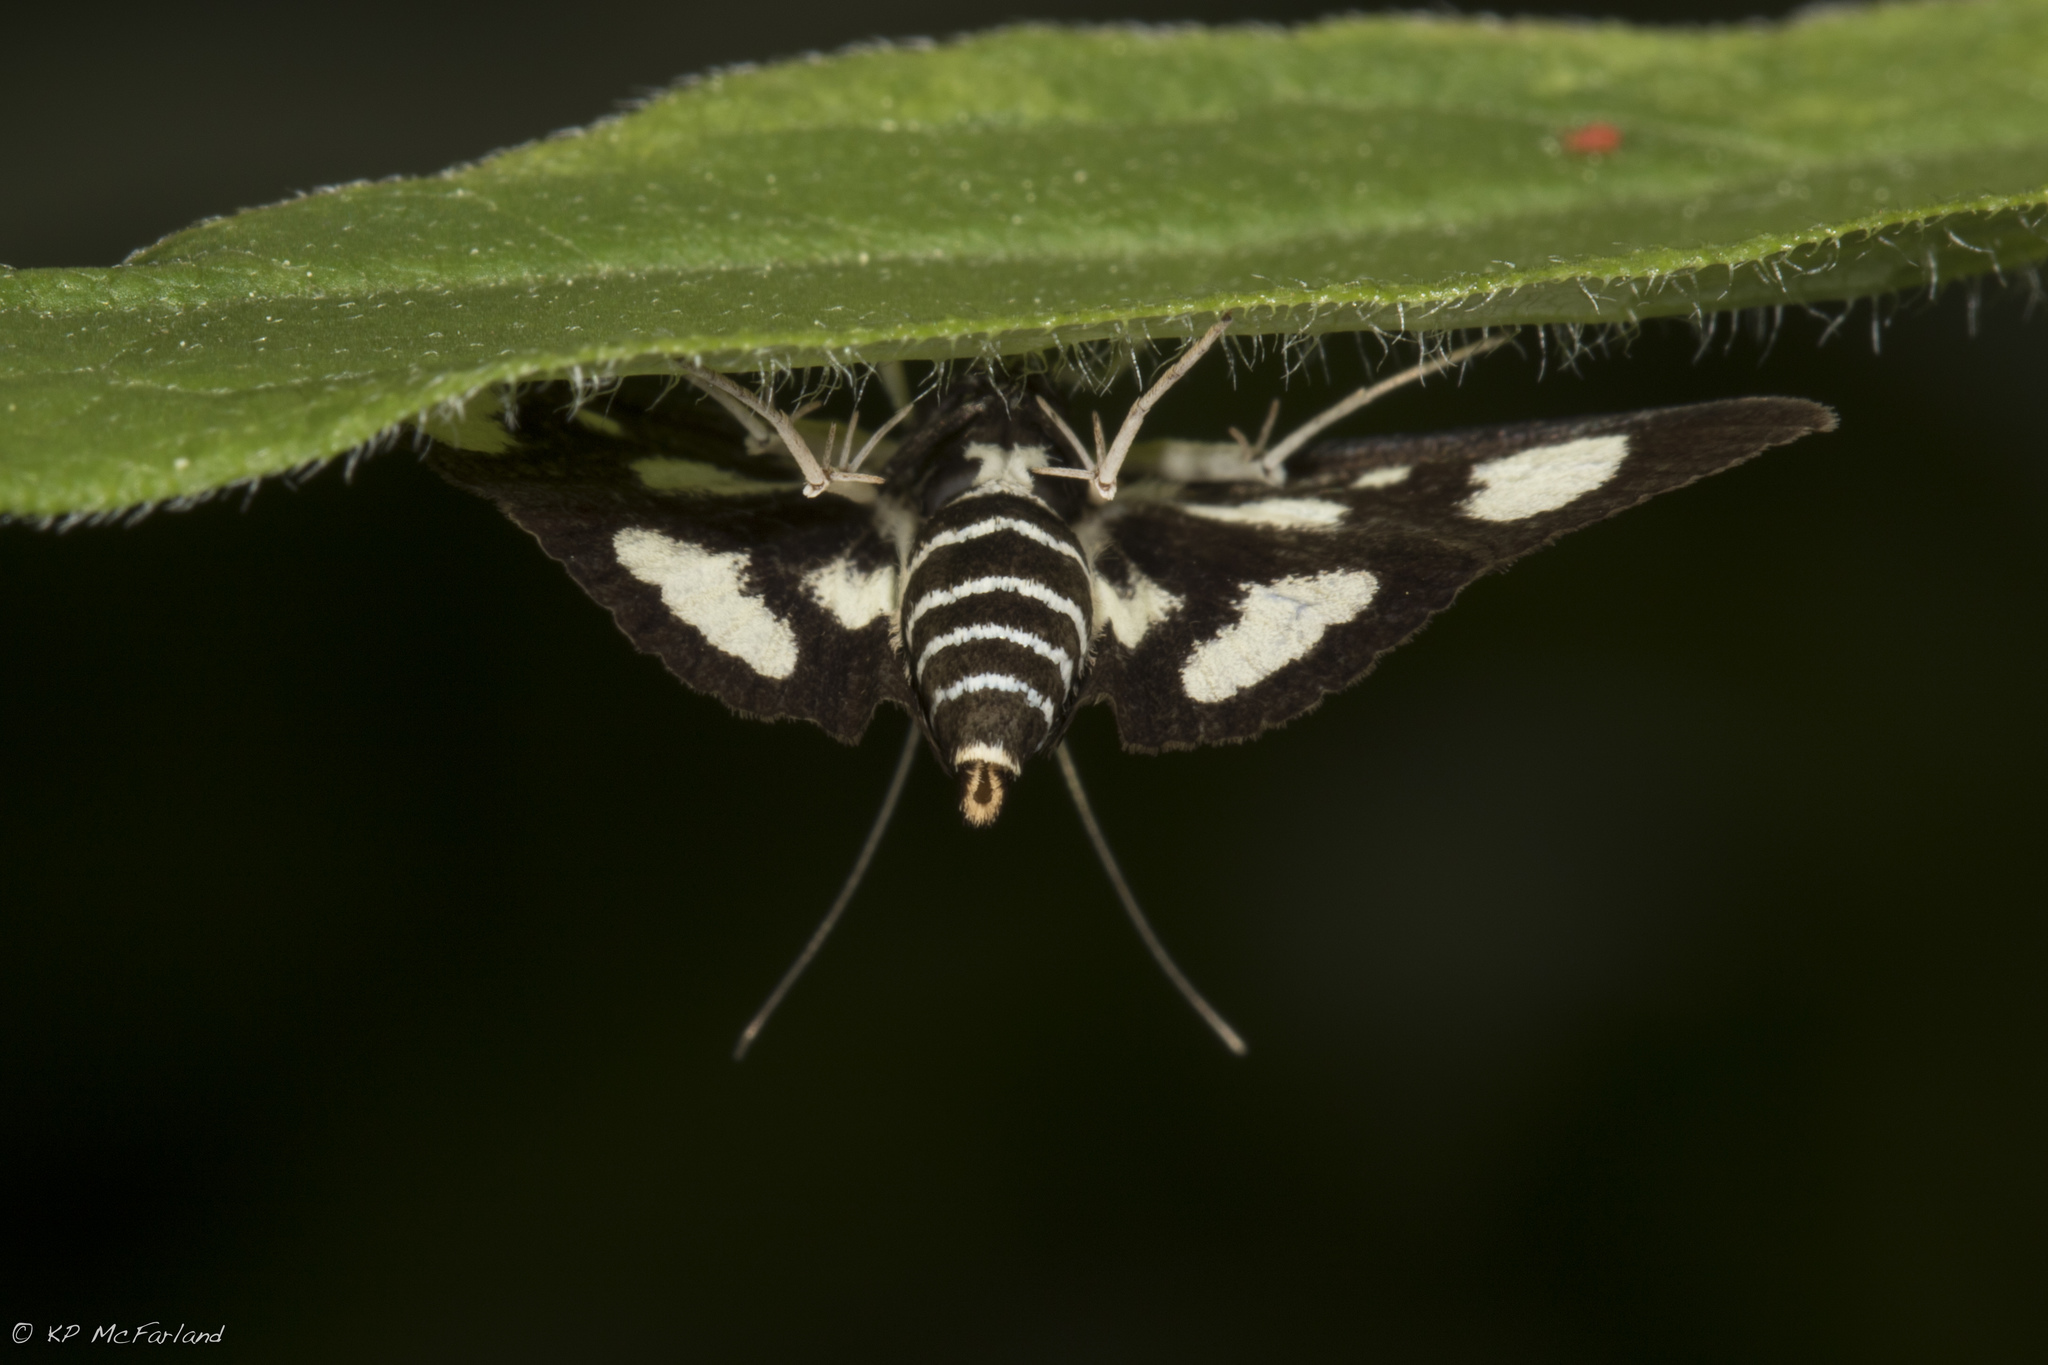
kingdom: Animalia
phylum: Arthropoda
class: Insecta
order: Lepidoptera
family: Crambidae
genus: Anania
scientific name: Anania funebris
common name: White-spotted sable moth
